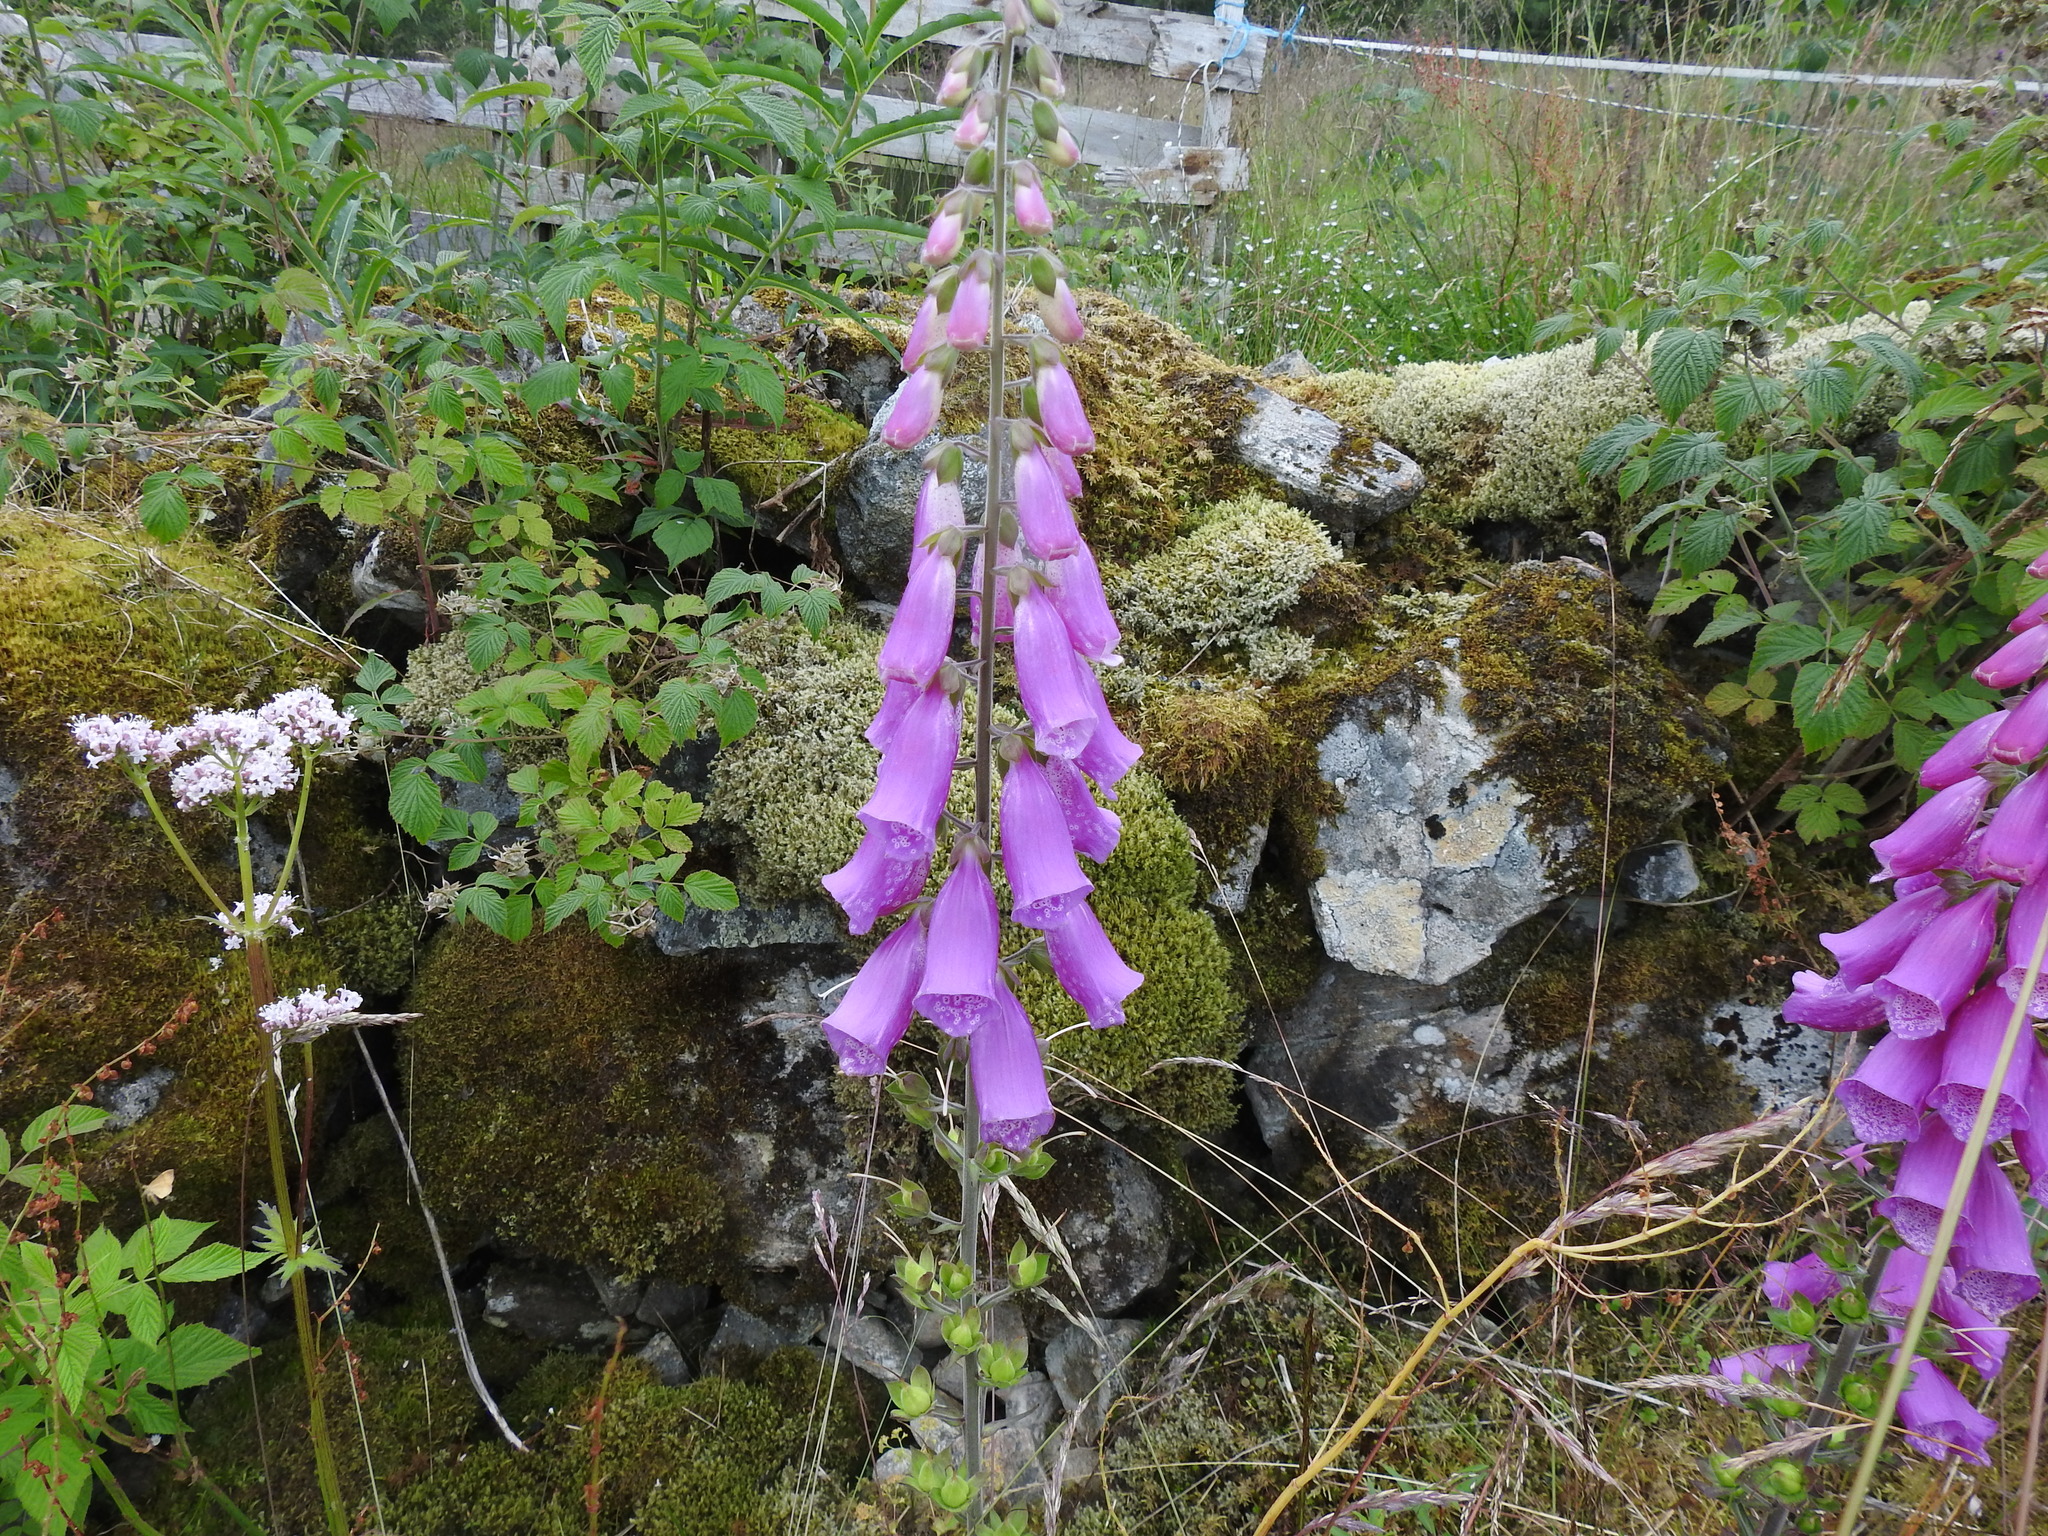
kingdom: Plantae
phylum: Tracheophyta
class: Magnoliopsida
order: Lamiales
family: Plantaginaceae
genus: Digitalis
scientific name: Digitalis purpurea
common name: Foxglove
